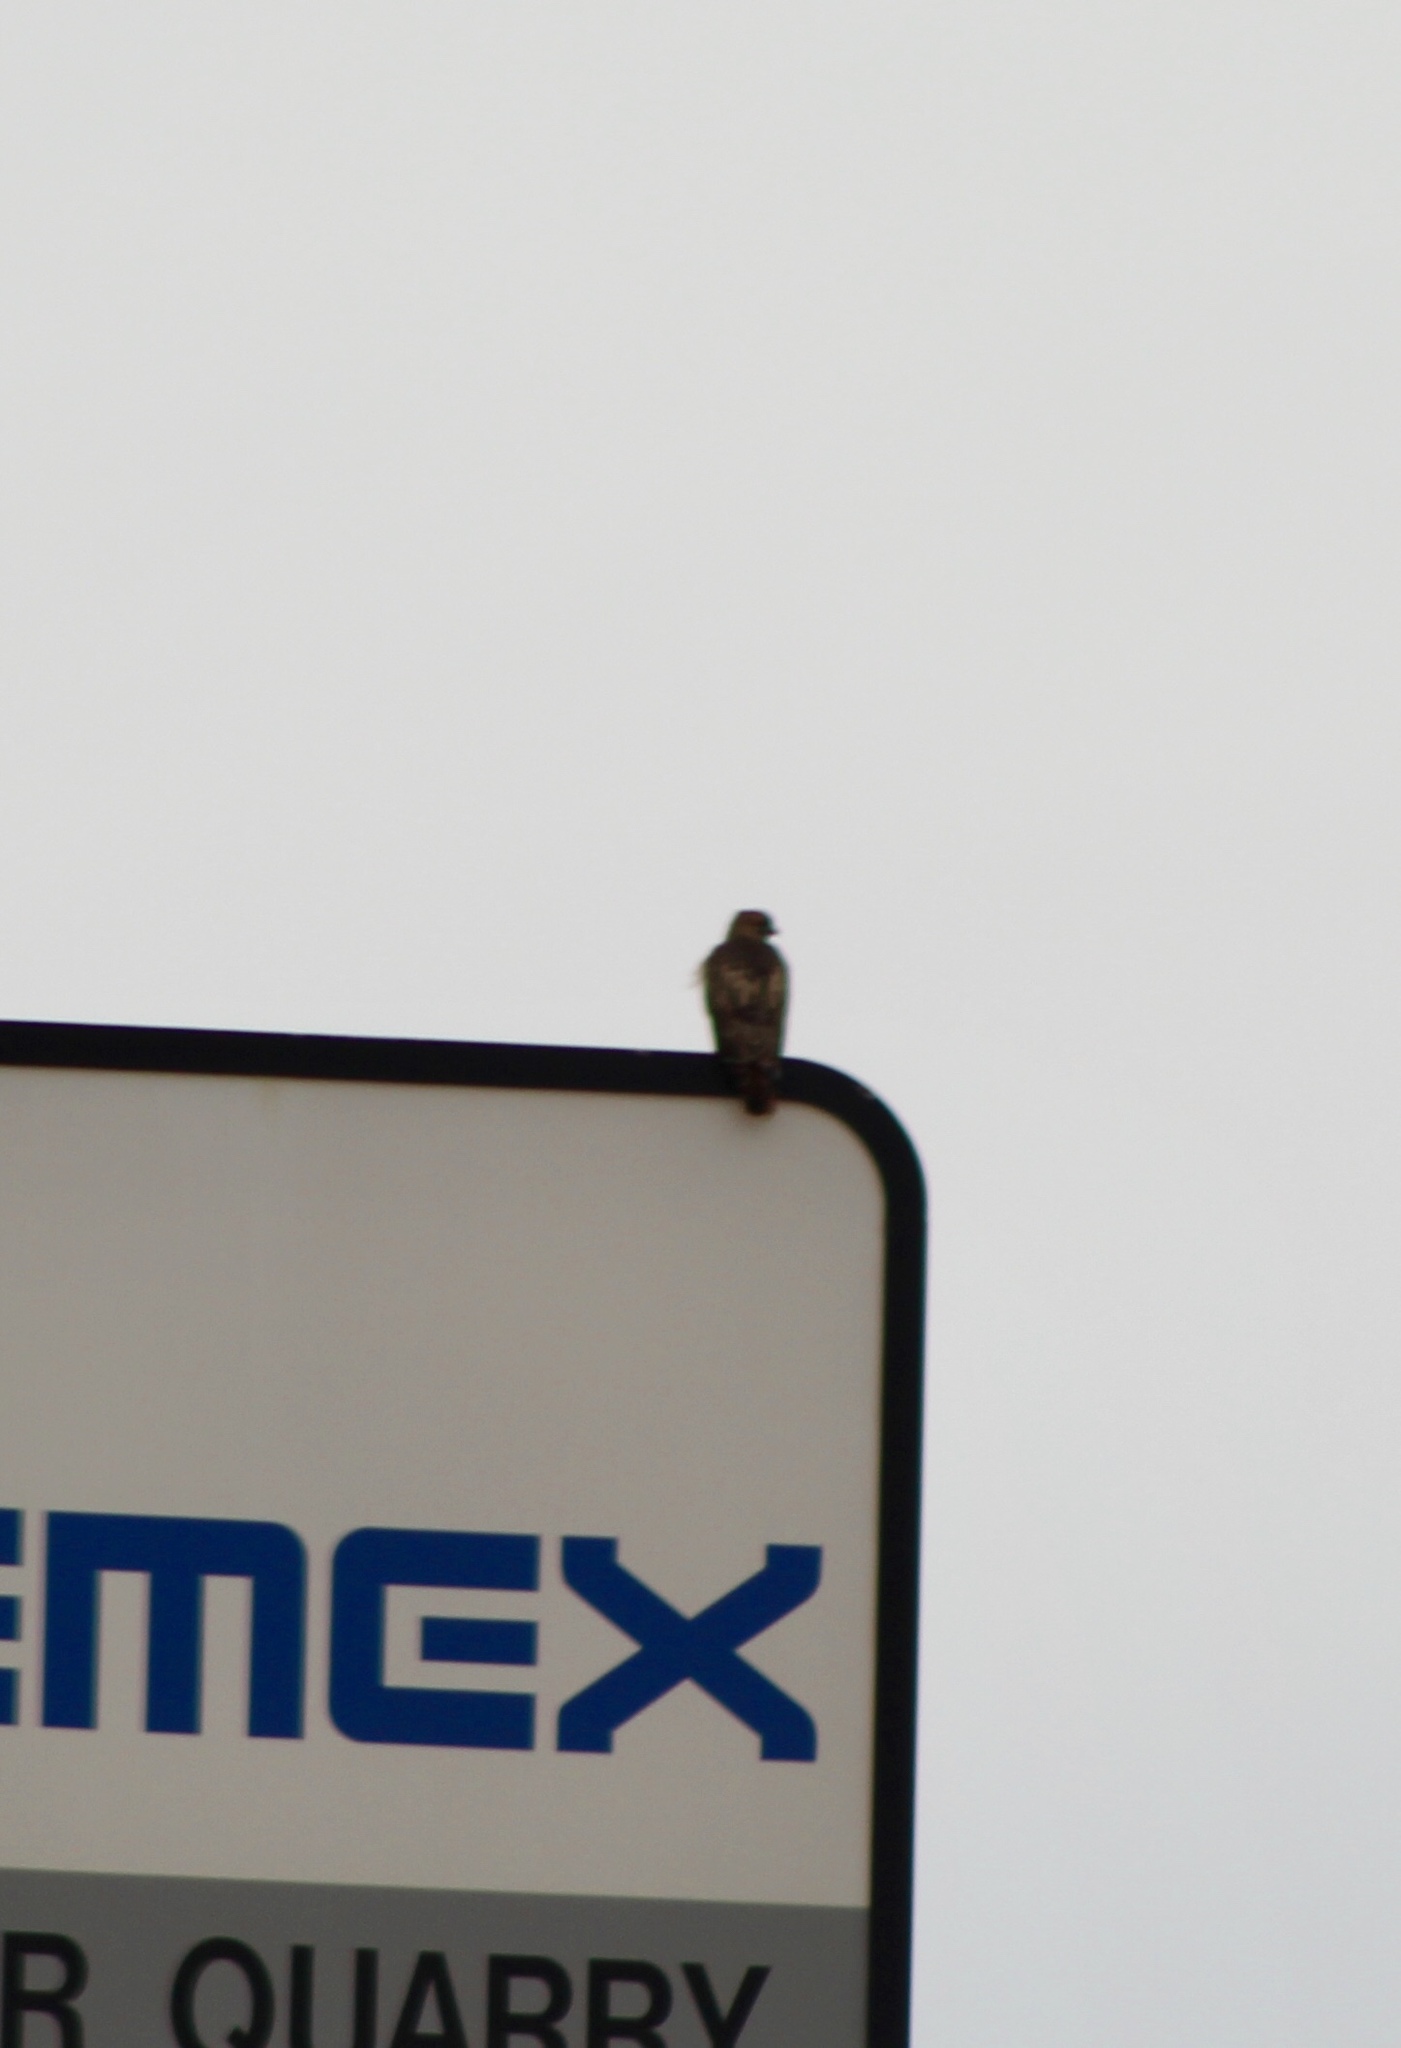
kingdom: Animalia
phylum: Chordata
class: Aves
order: Accipitriformes
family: Accipitridae
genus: Buteo
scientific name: Buteo jamaicensis
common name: Red-tailed hawk
